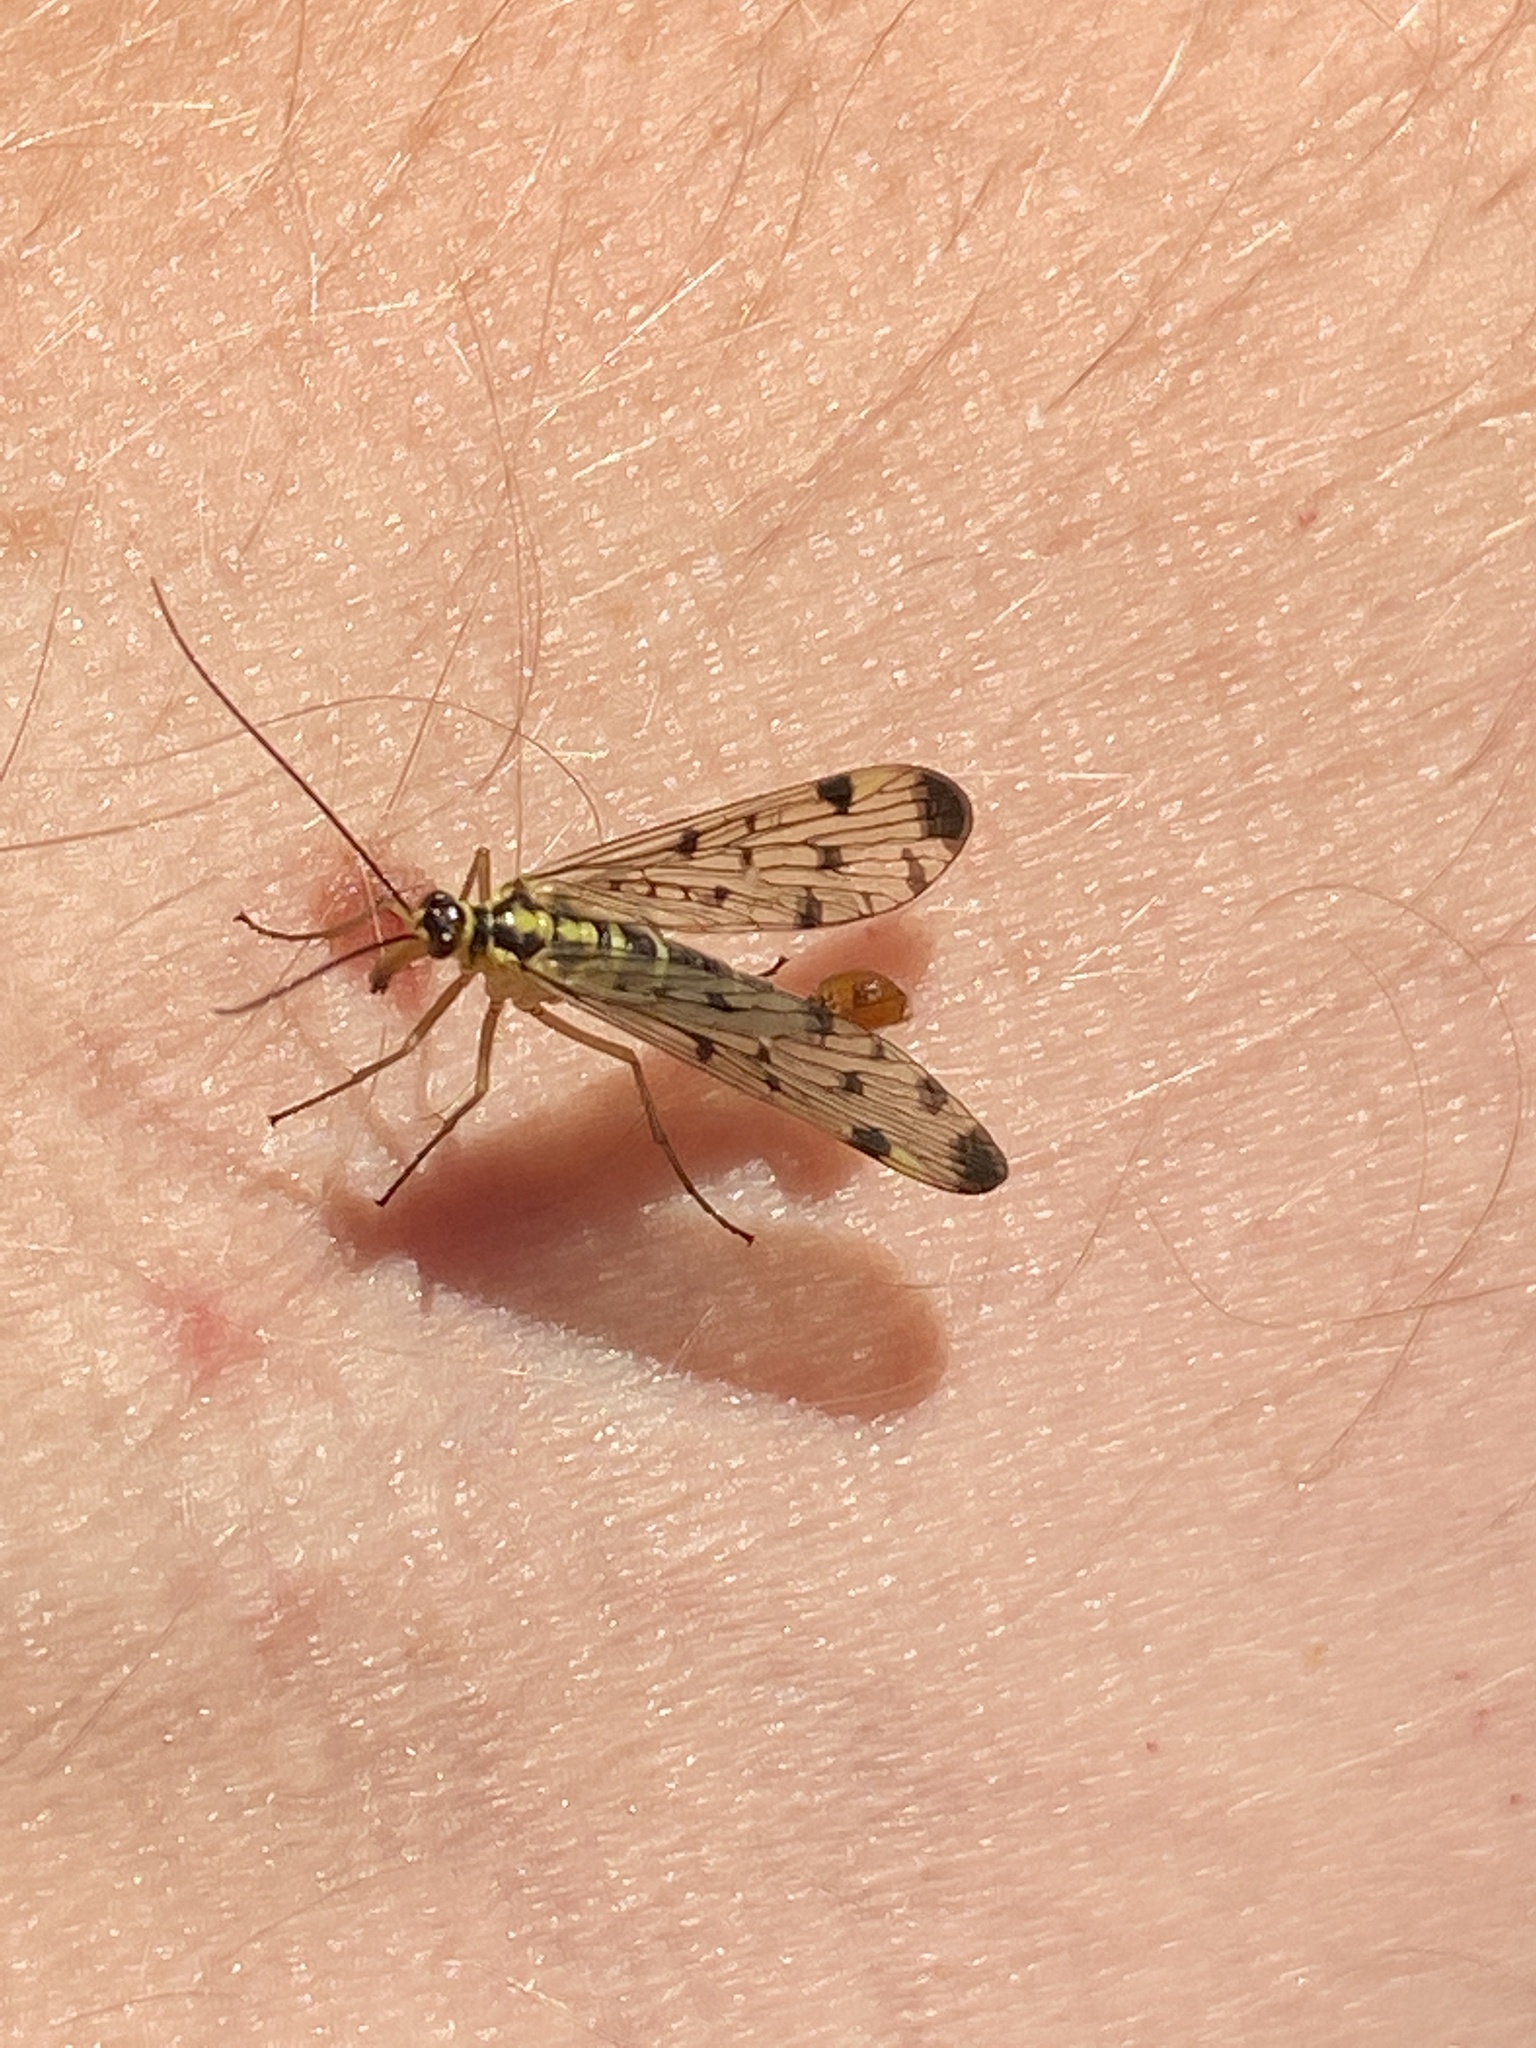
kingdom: Animalia
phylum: Arthropoda
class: Insecta
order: Mecoptera
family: Panorpidae
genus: Panorpa
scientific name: Panorpa germanica
